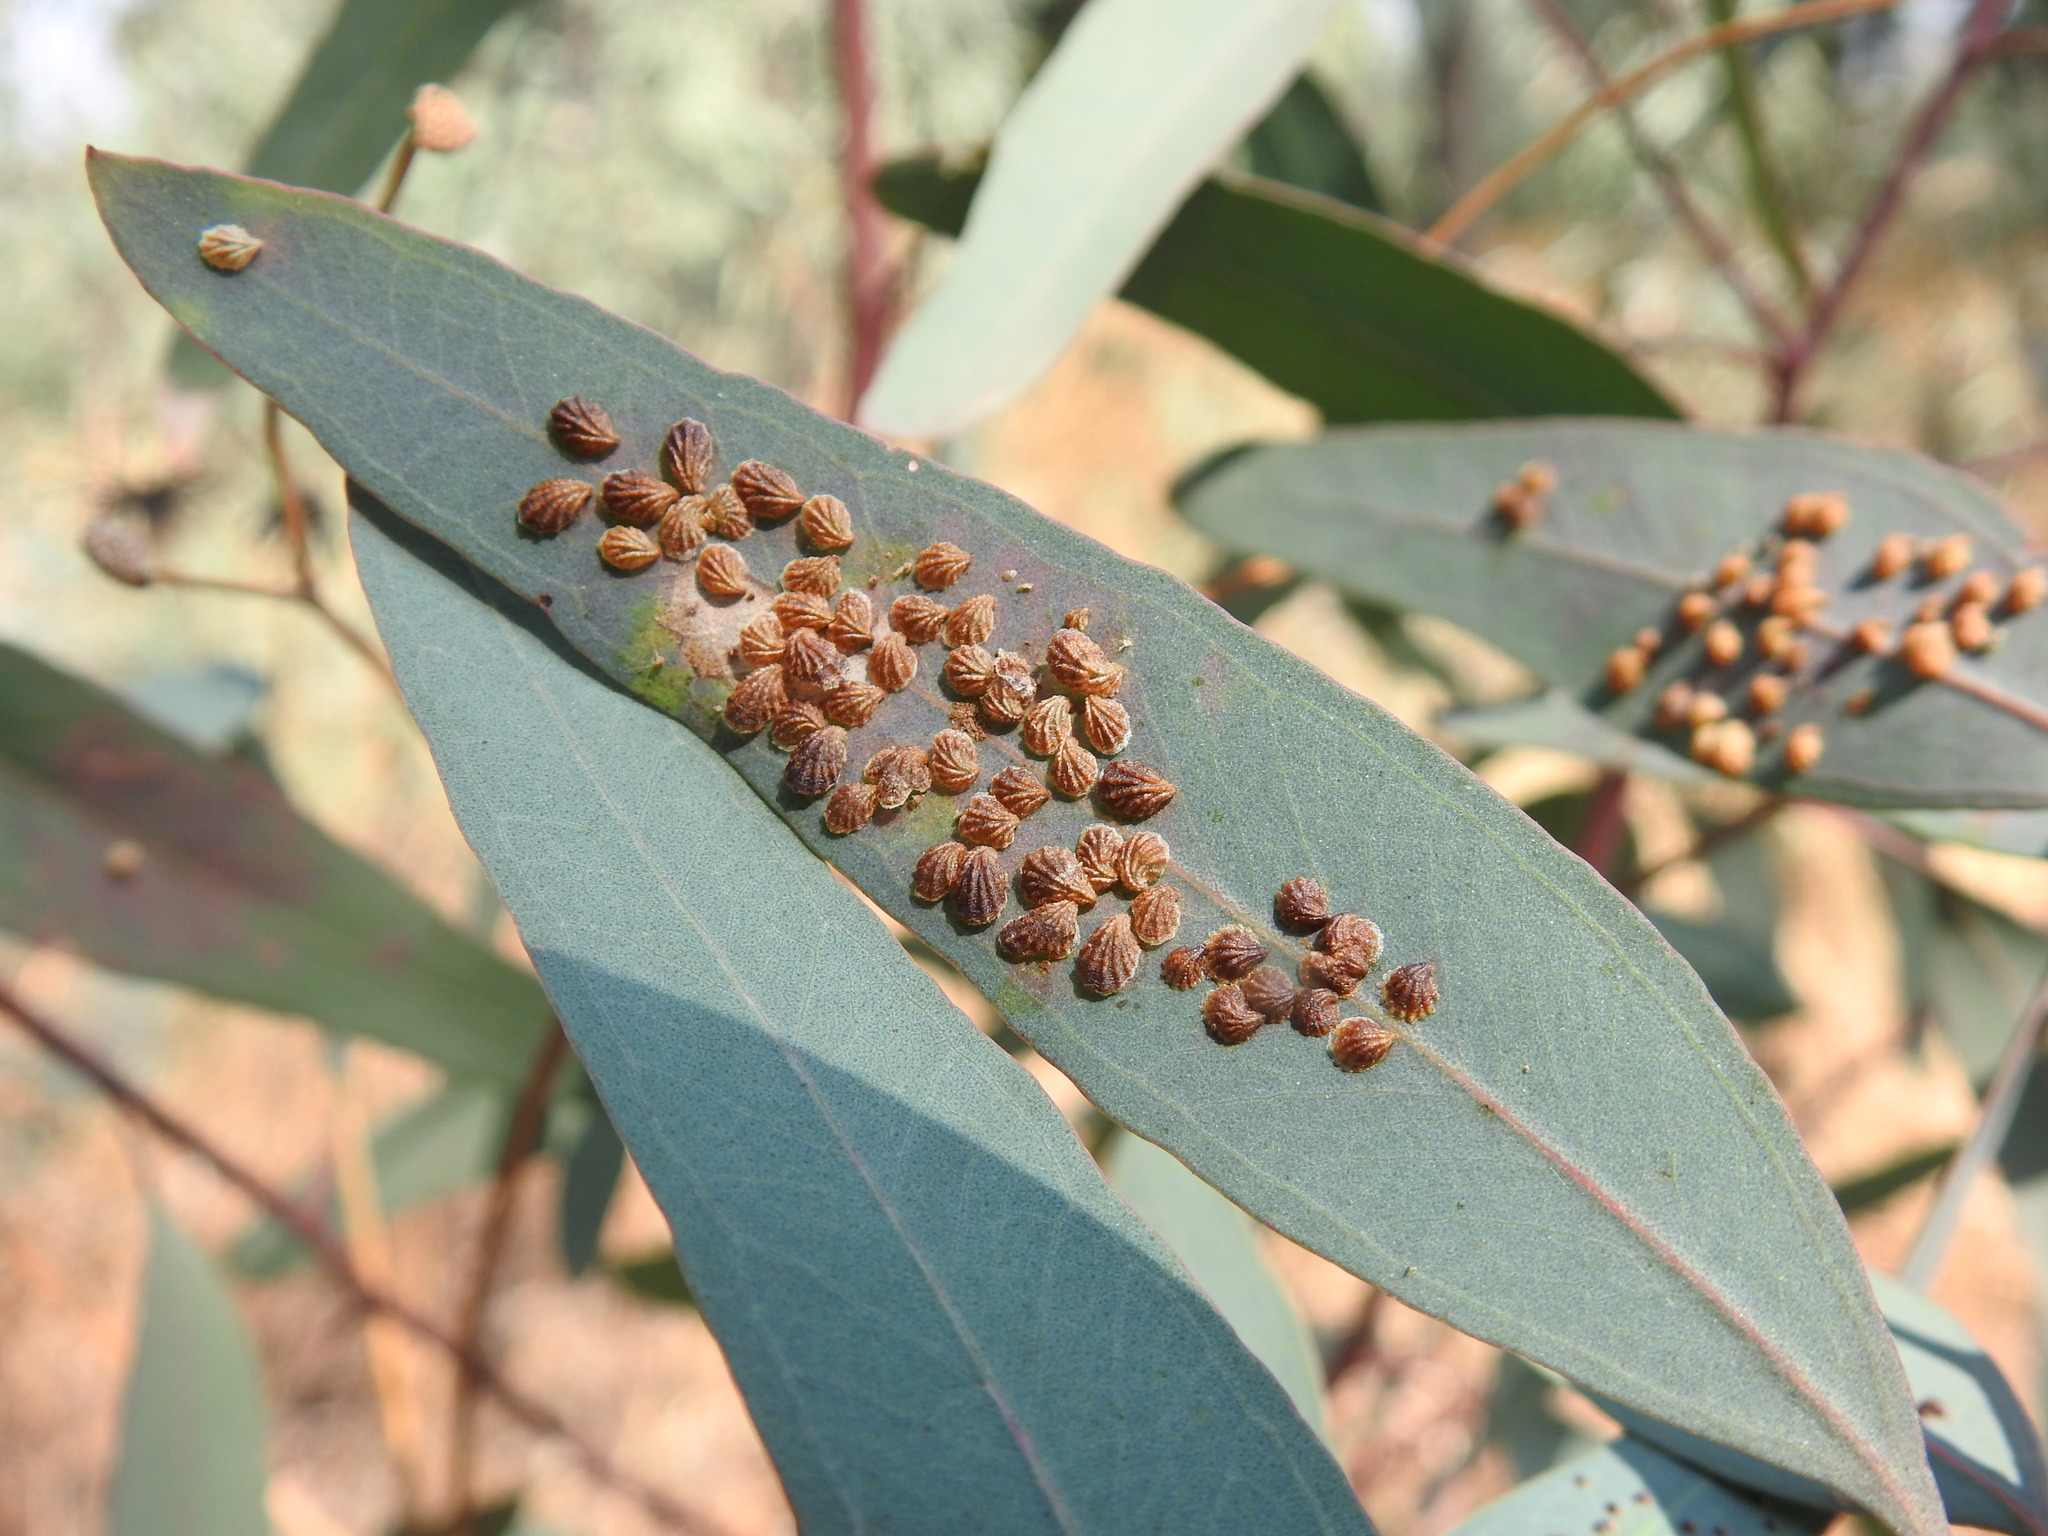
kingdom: Animalia
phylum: Arthropoda
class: Insecta
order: Hemiptera
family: Aphalaridae
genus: Spondyliaspis
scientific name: Spondyliaspis plicatuloides
